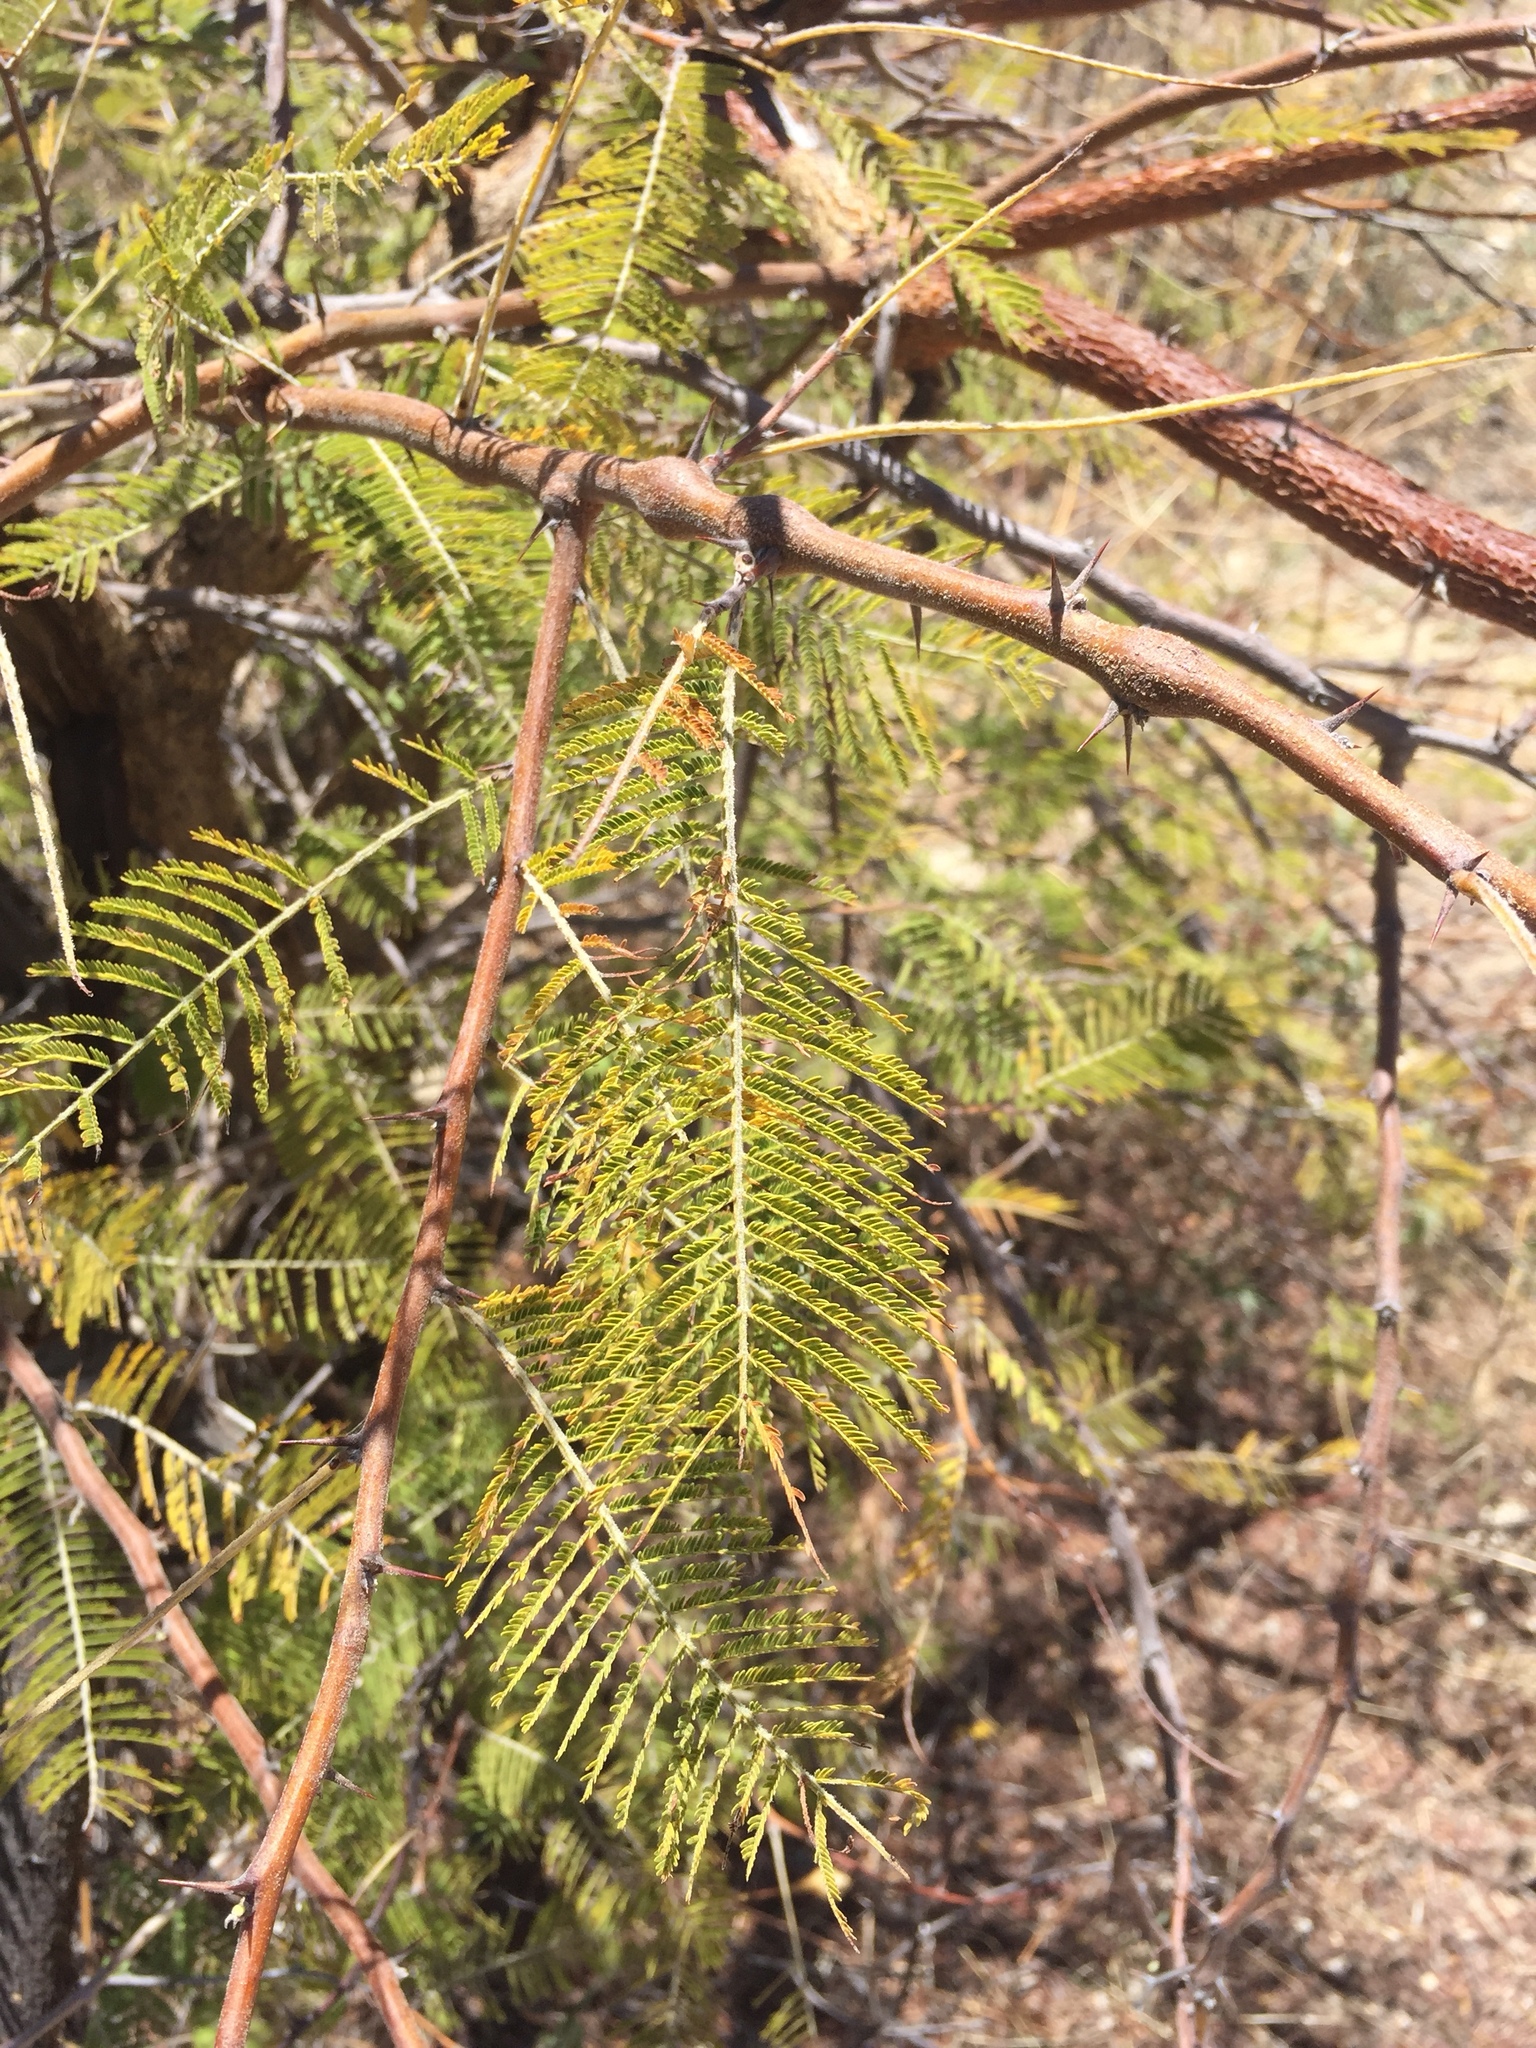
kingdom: Plantae
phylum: Tracheophyta
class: Magnoliopsida
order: Fabales
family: Fabaceae
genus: Vachellia
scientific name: Vachellia farnesiana
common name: Sweet acacia
